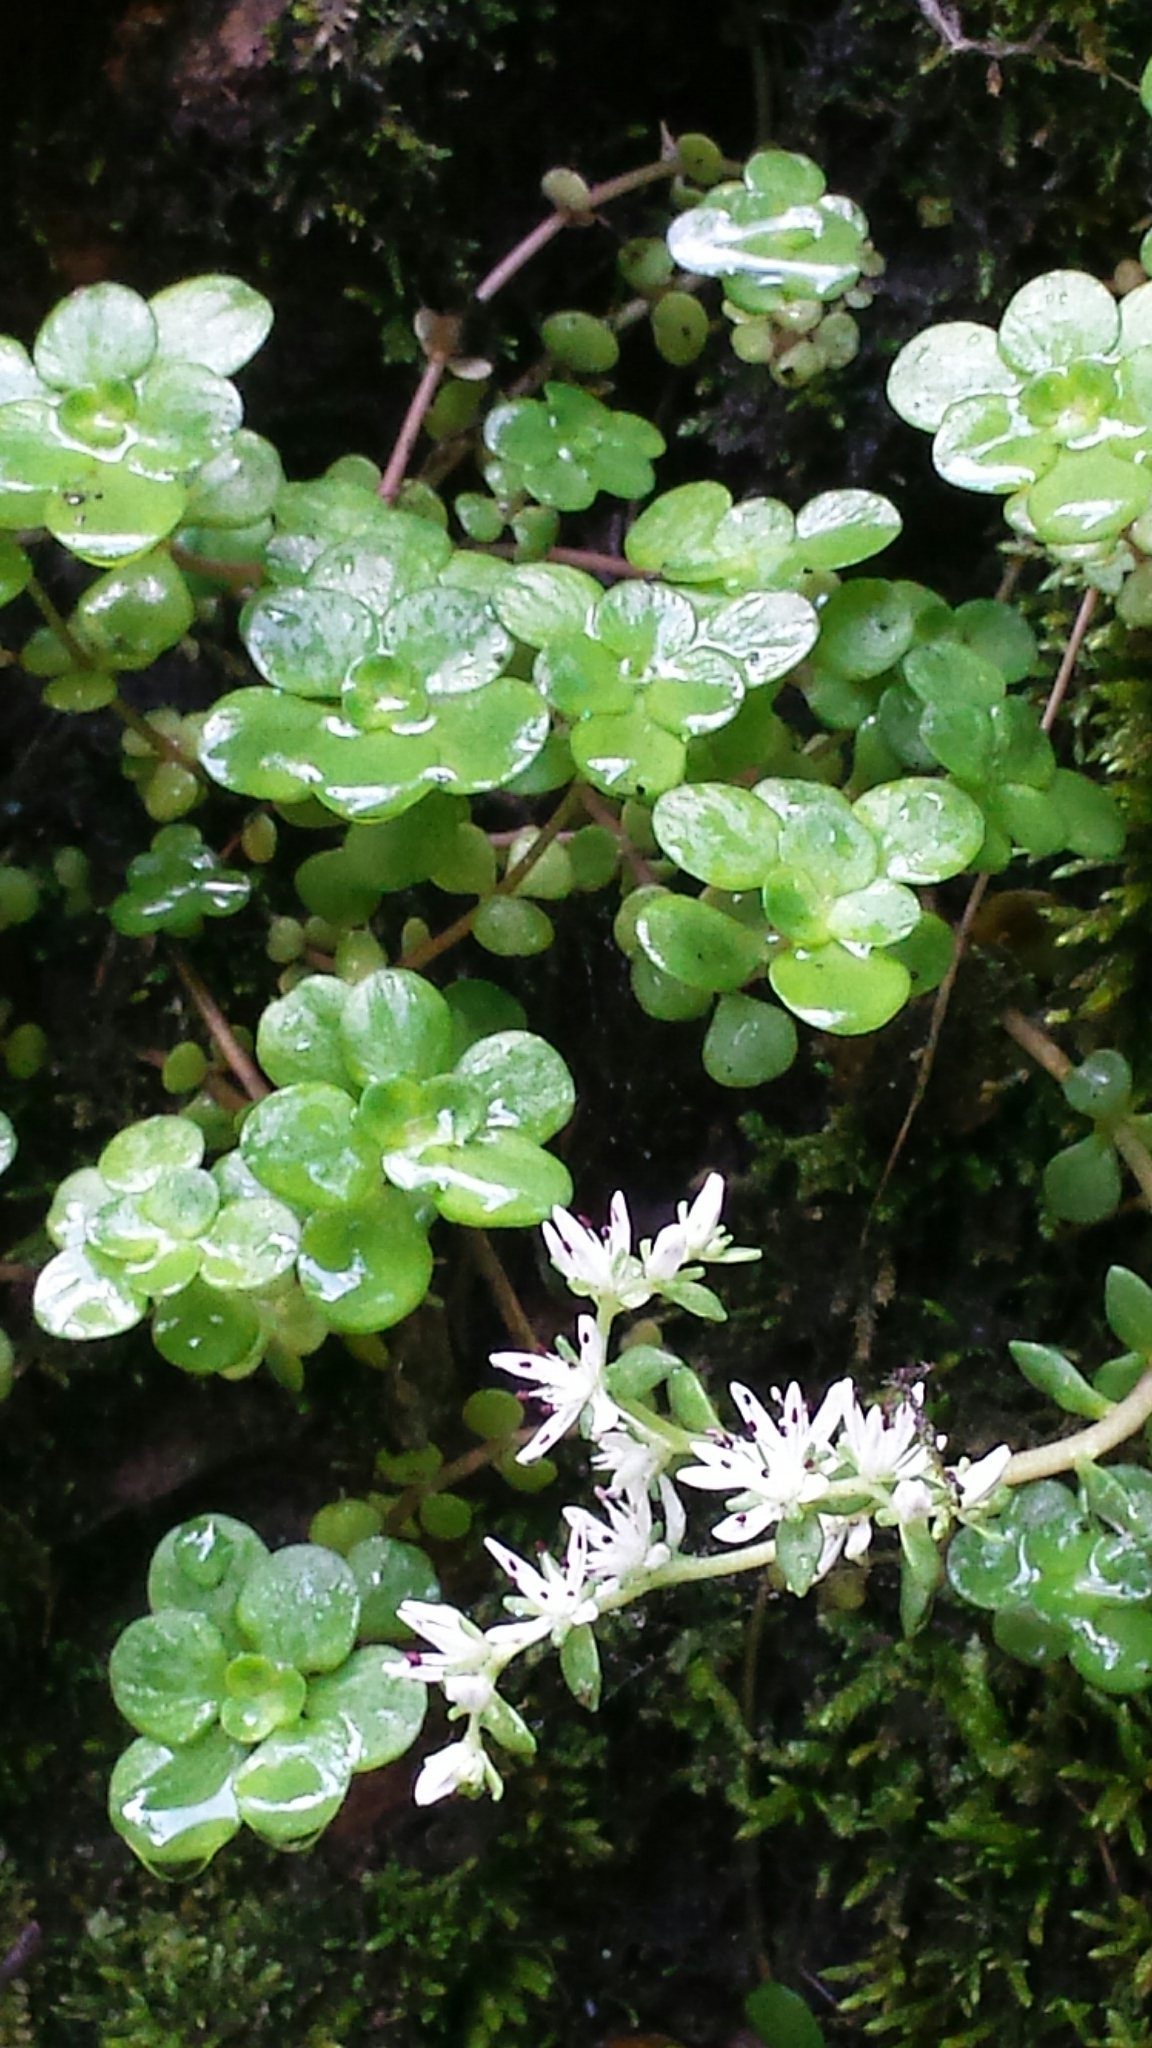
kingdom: Plantae
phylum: Tracheophyta
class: Magnoliopsida
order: Saxifragales
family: Crassulaceae
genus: Sedum
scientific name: Sedum ternatum
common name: Wild stonecrop
